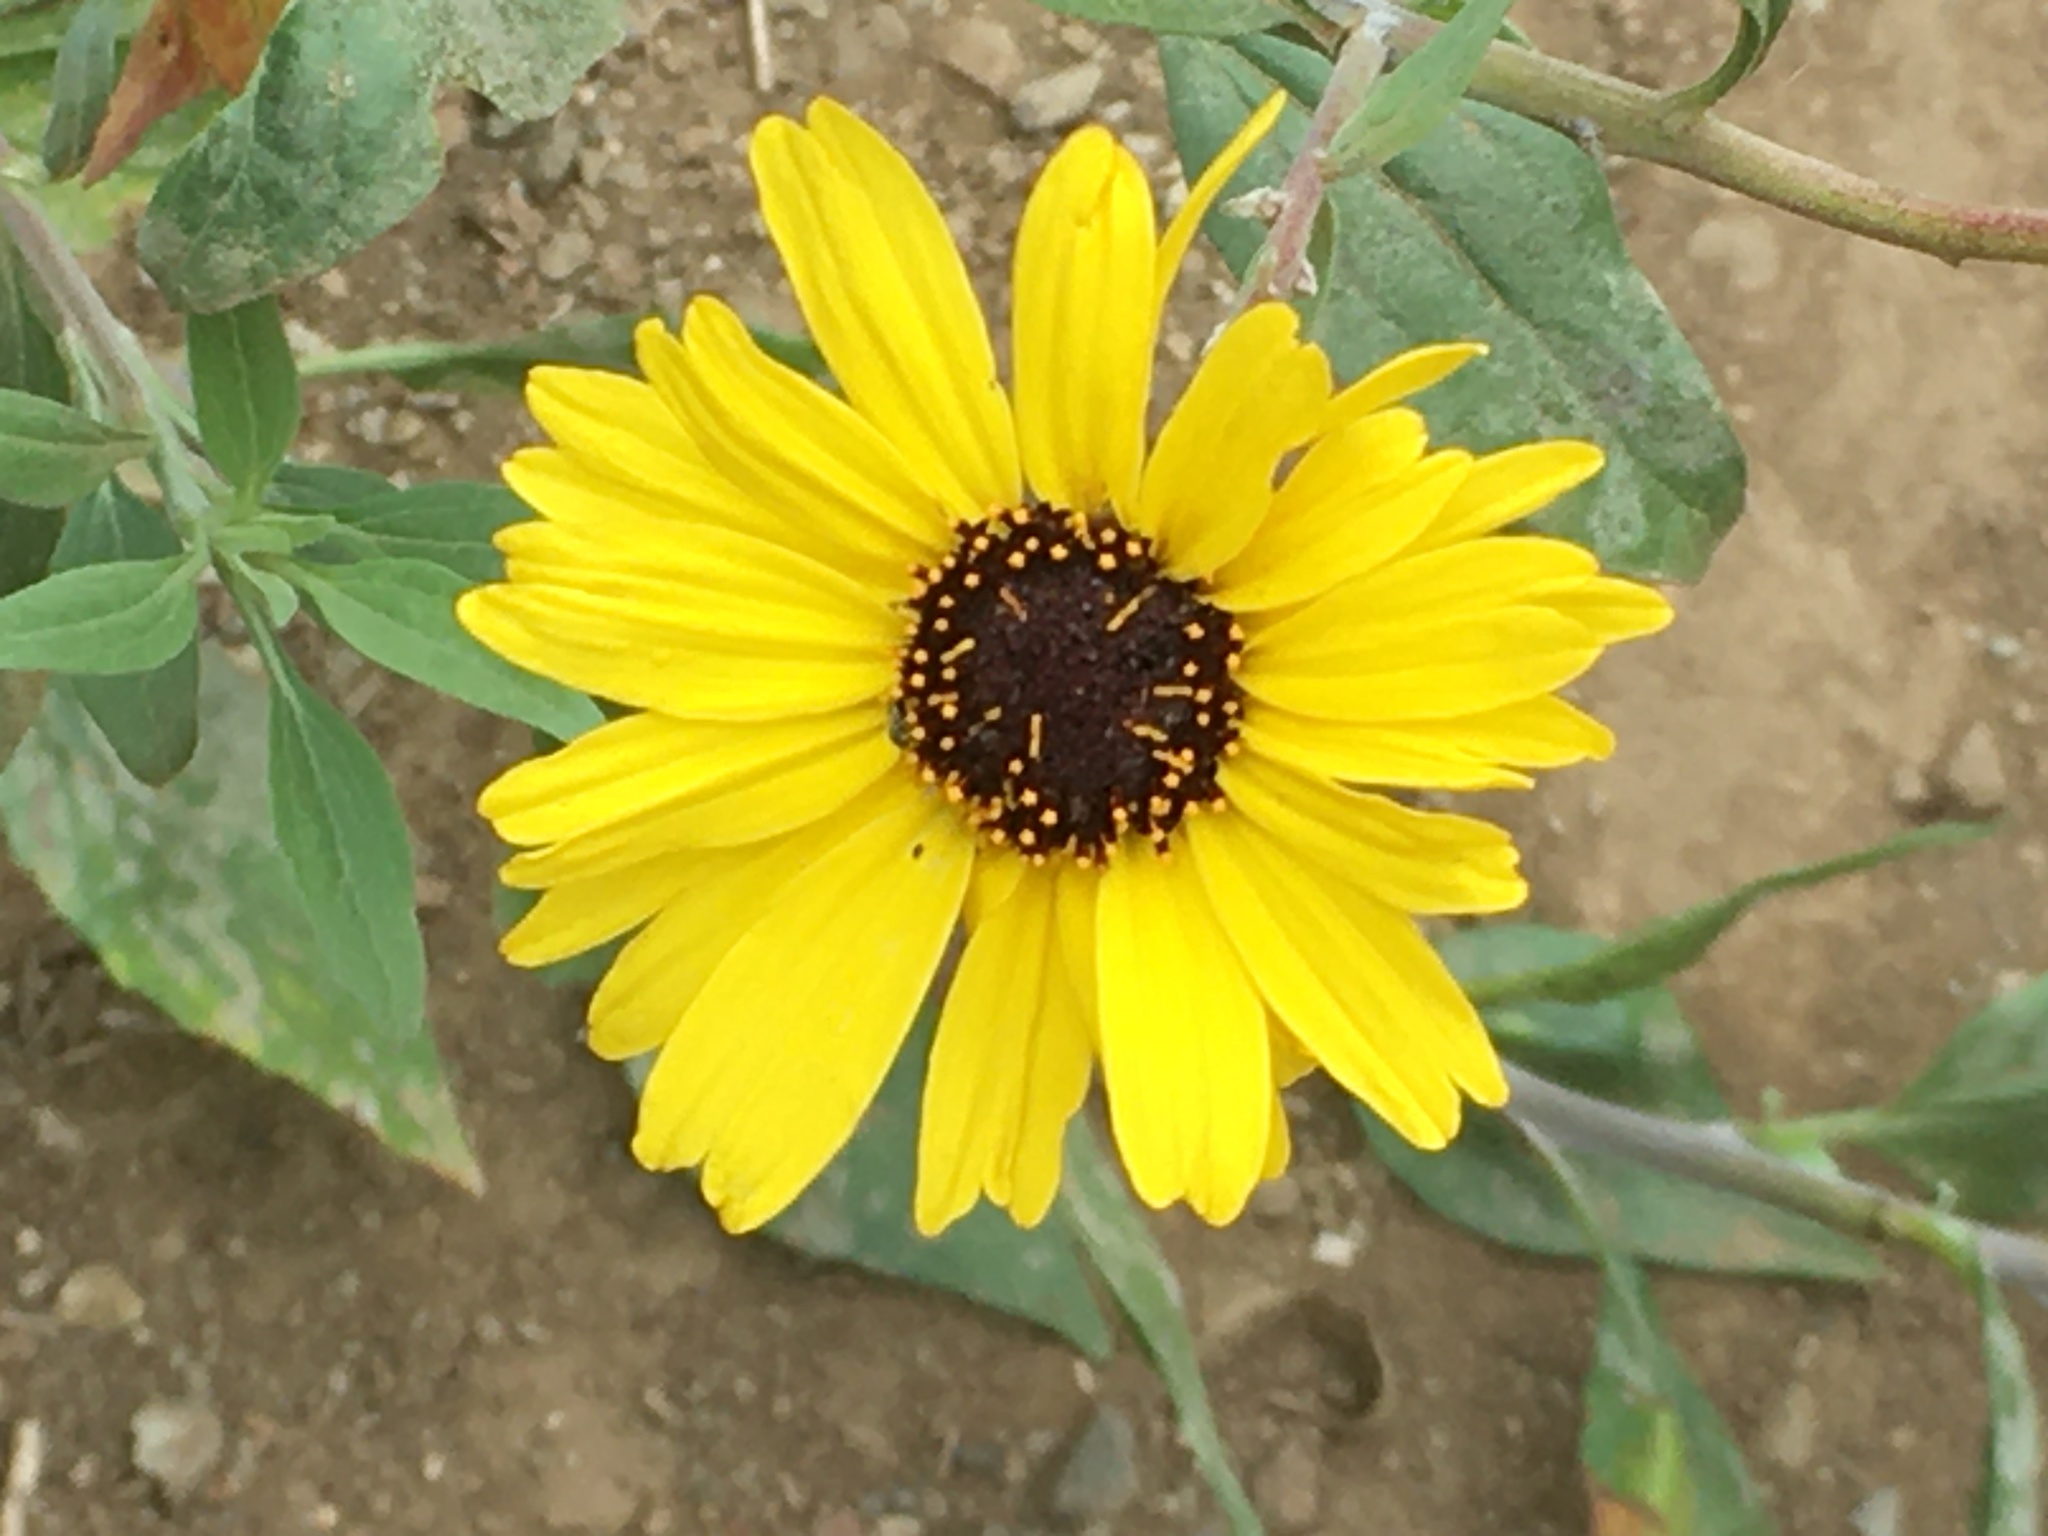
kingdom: Plantae
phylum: Tracheophyta
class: Magnoliopsida
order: Asterales
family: Asteraceae
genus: Encelia
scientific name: Encelia californica
